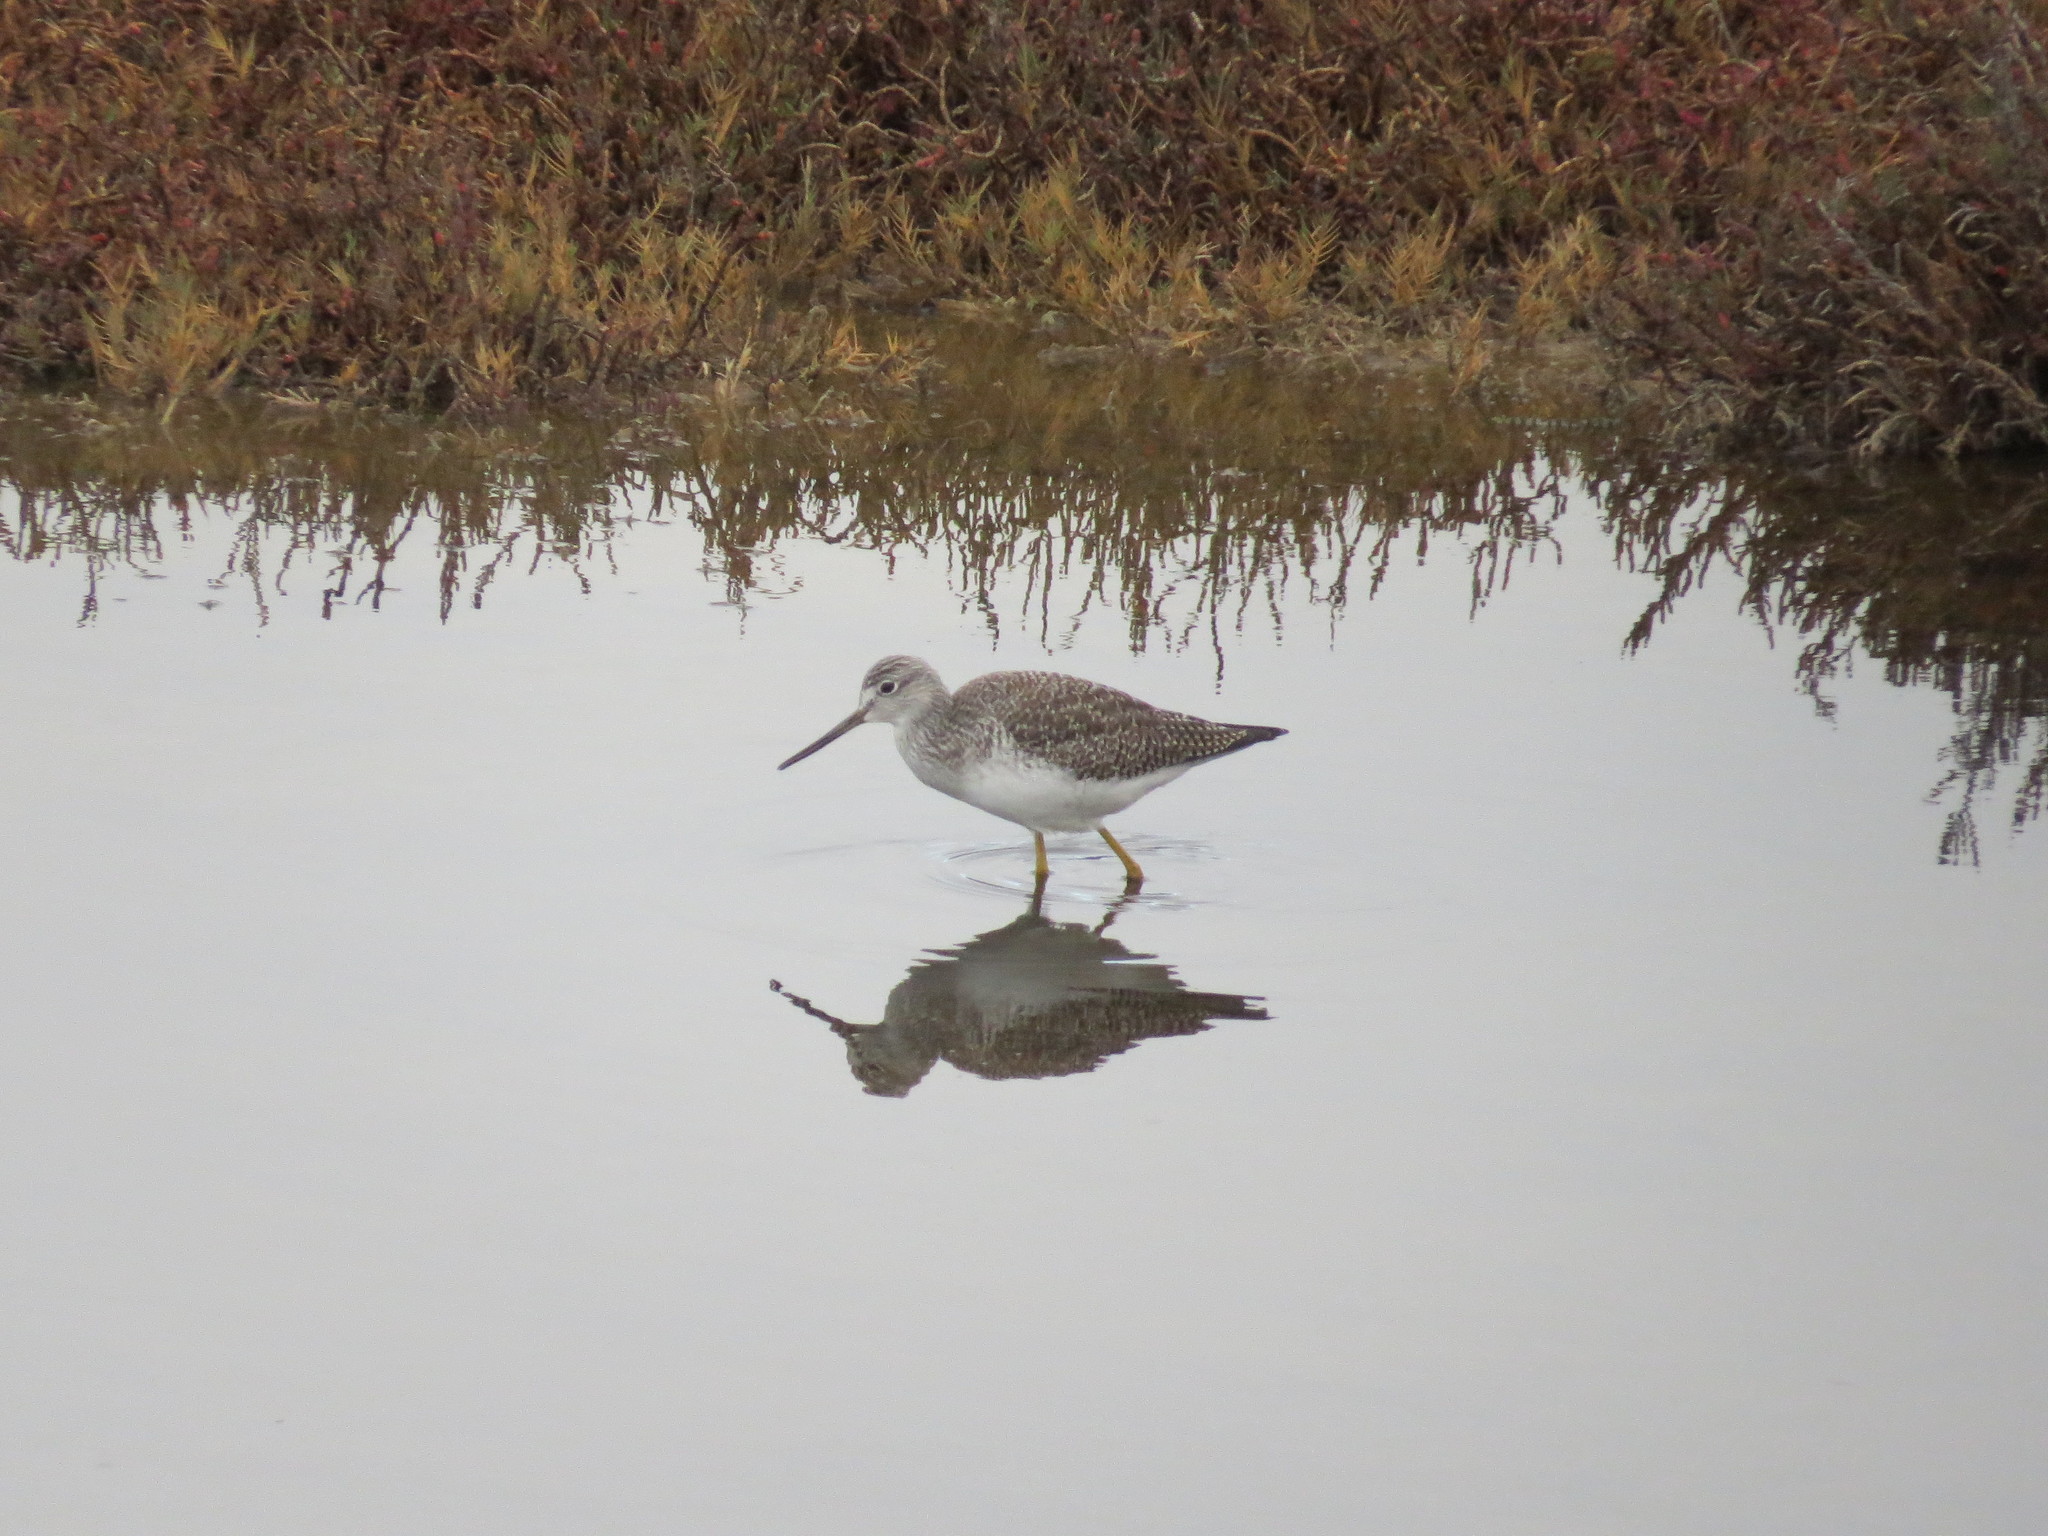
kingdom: Animalia
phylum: Chordata
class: Aves
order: Charadriiformes
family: Scolopacidae
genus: Tringa
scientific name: Tringa melanoleuca
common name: Greater yellowlegs
